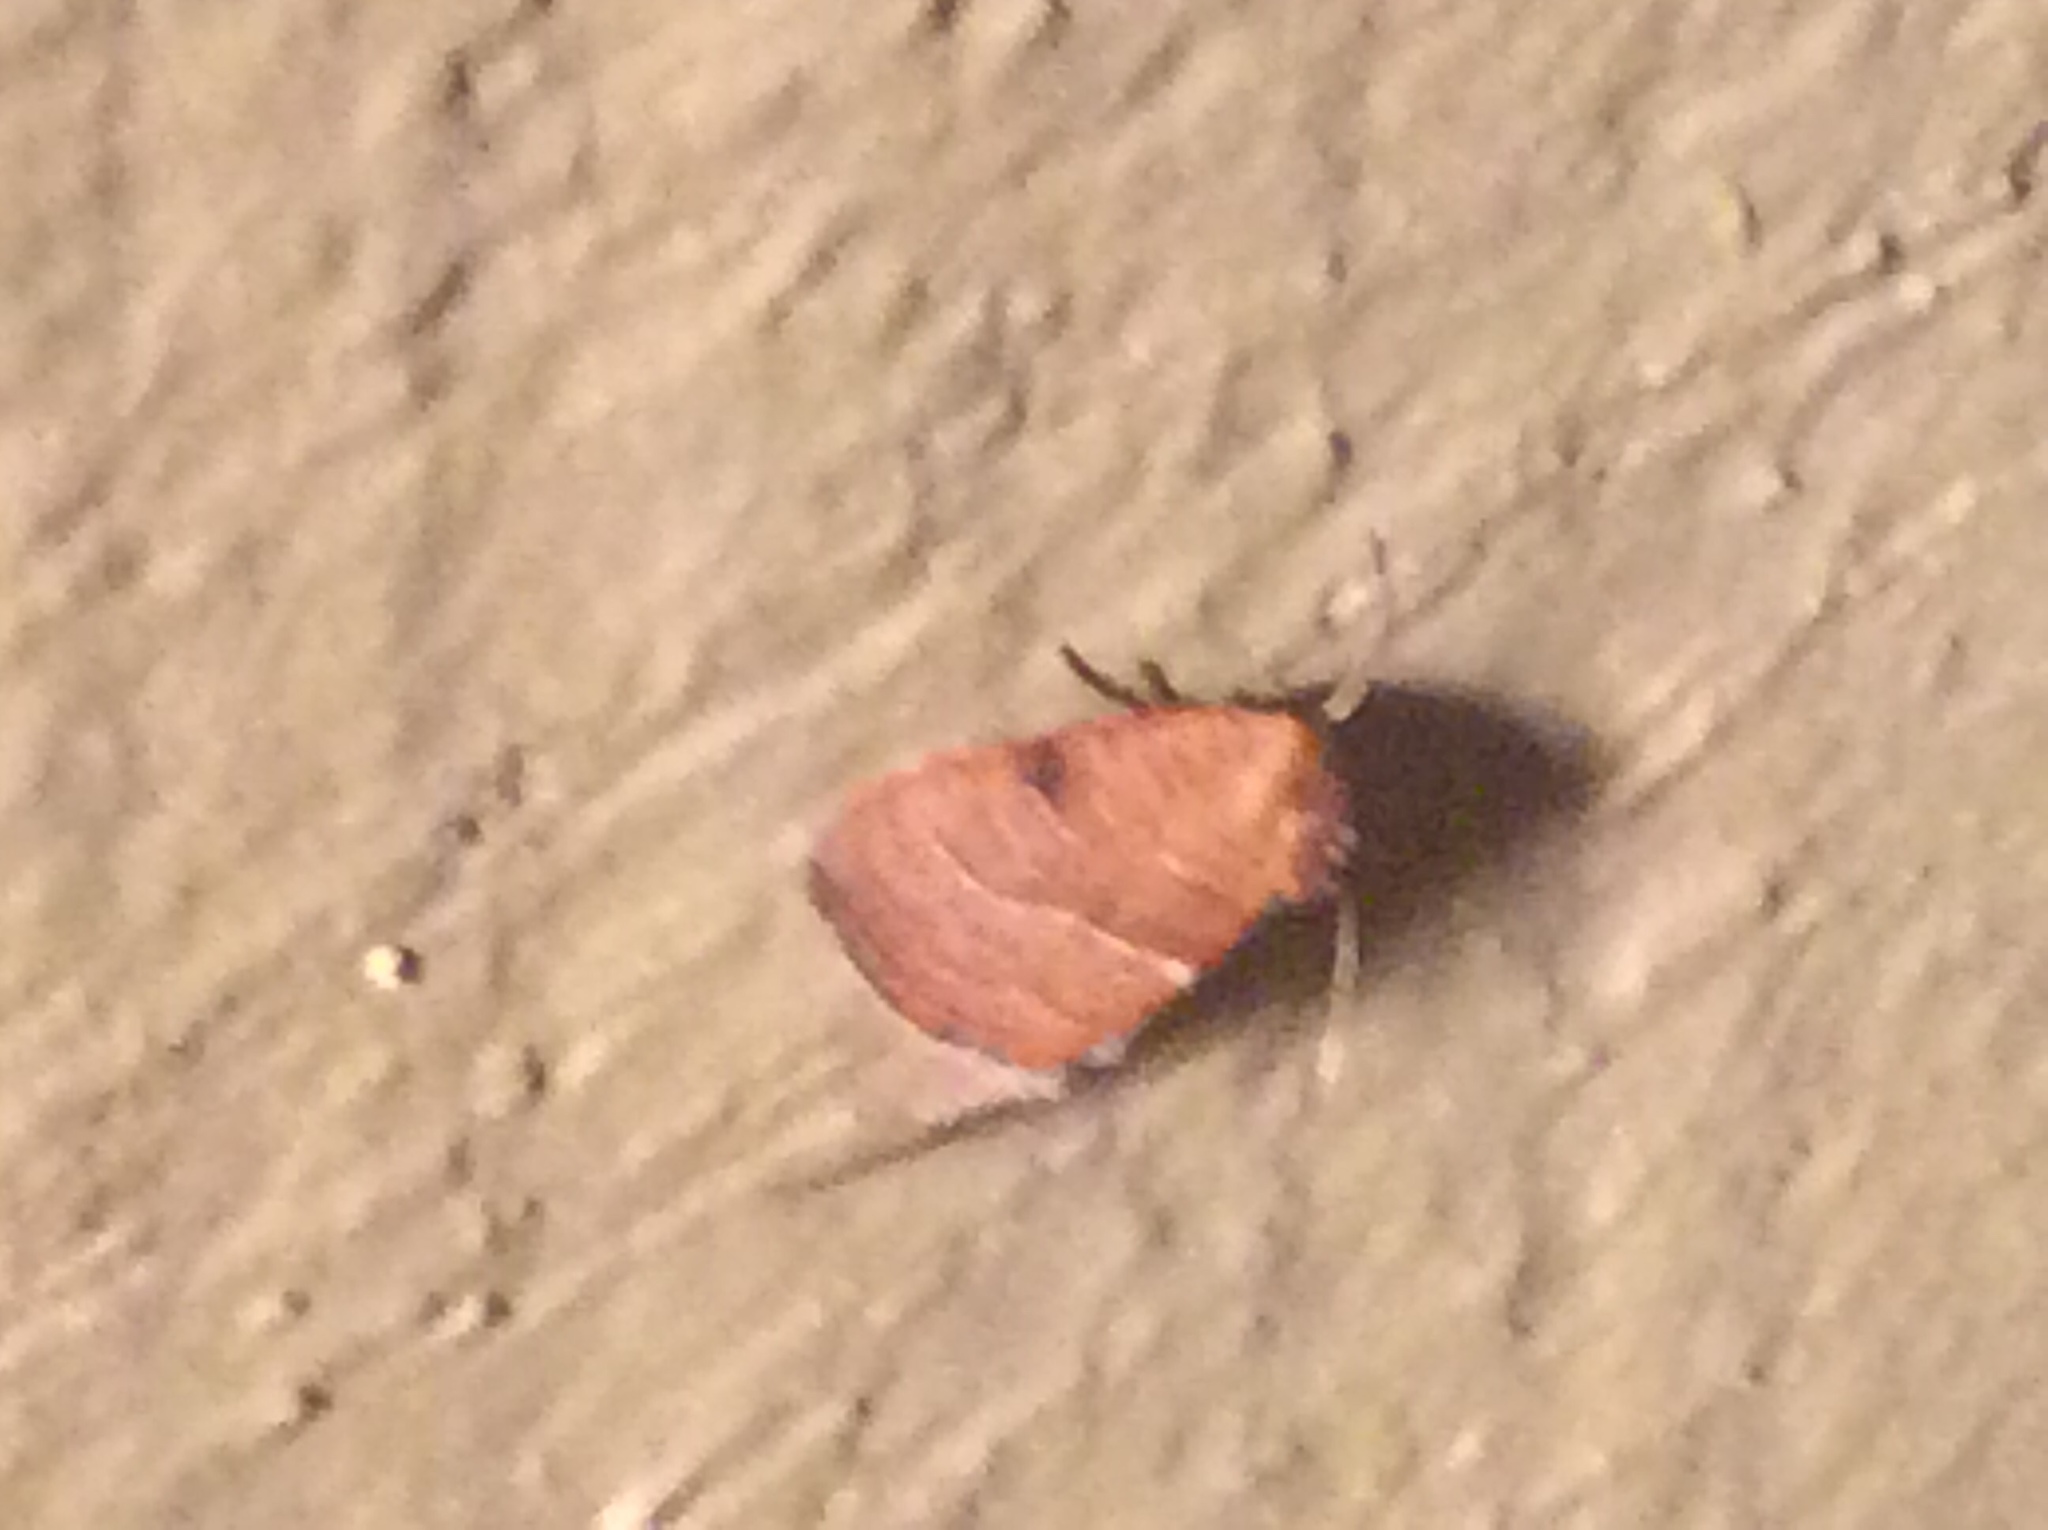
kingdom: Animalia
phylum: Arthropoda
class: Insecta
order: Lepidoptera
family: Noctuidae
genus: Galgula
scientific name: Galgula partita
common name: Wedgeling
